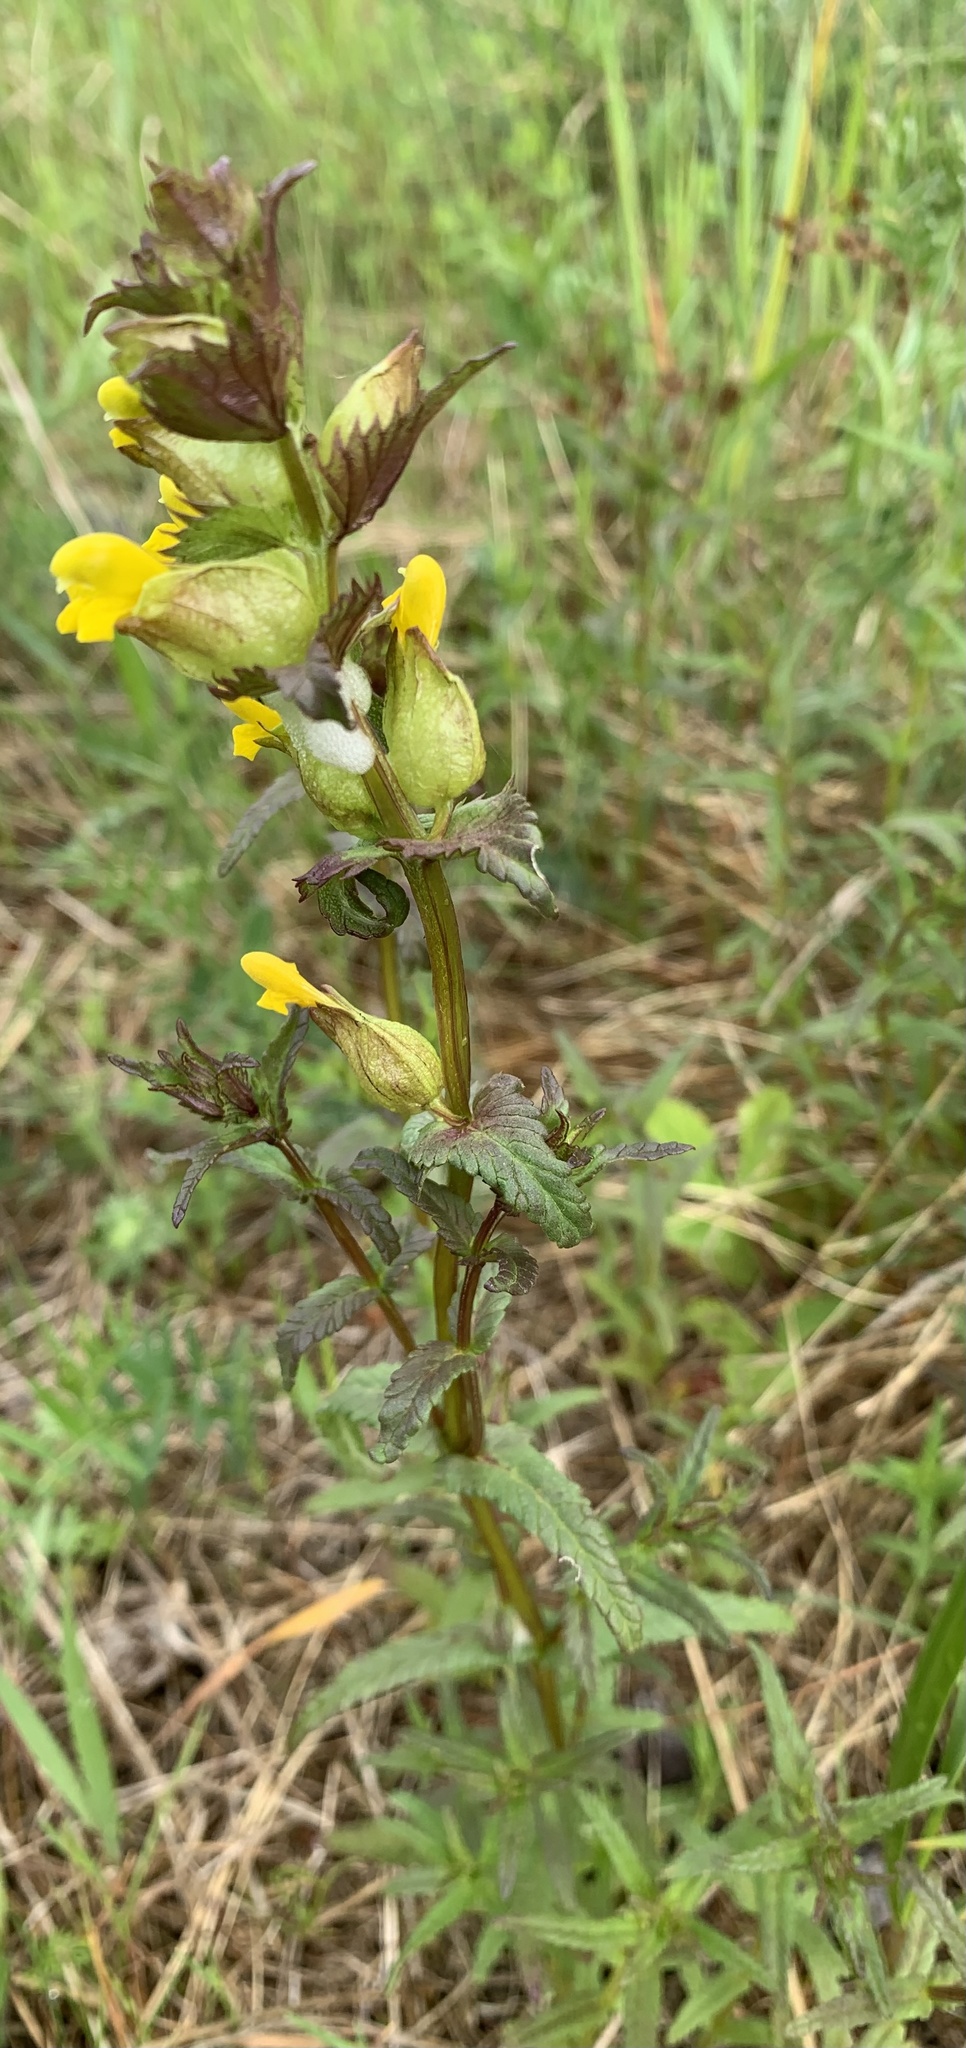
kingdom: Plantae
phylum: Tracheophyta
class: Magnoliopsida
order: Lamiales
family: Orobanchaceae
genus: Rhinanthus
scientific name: Rhinanthus minor
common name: Yellow-rattle
